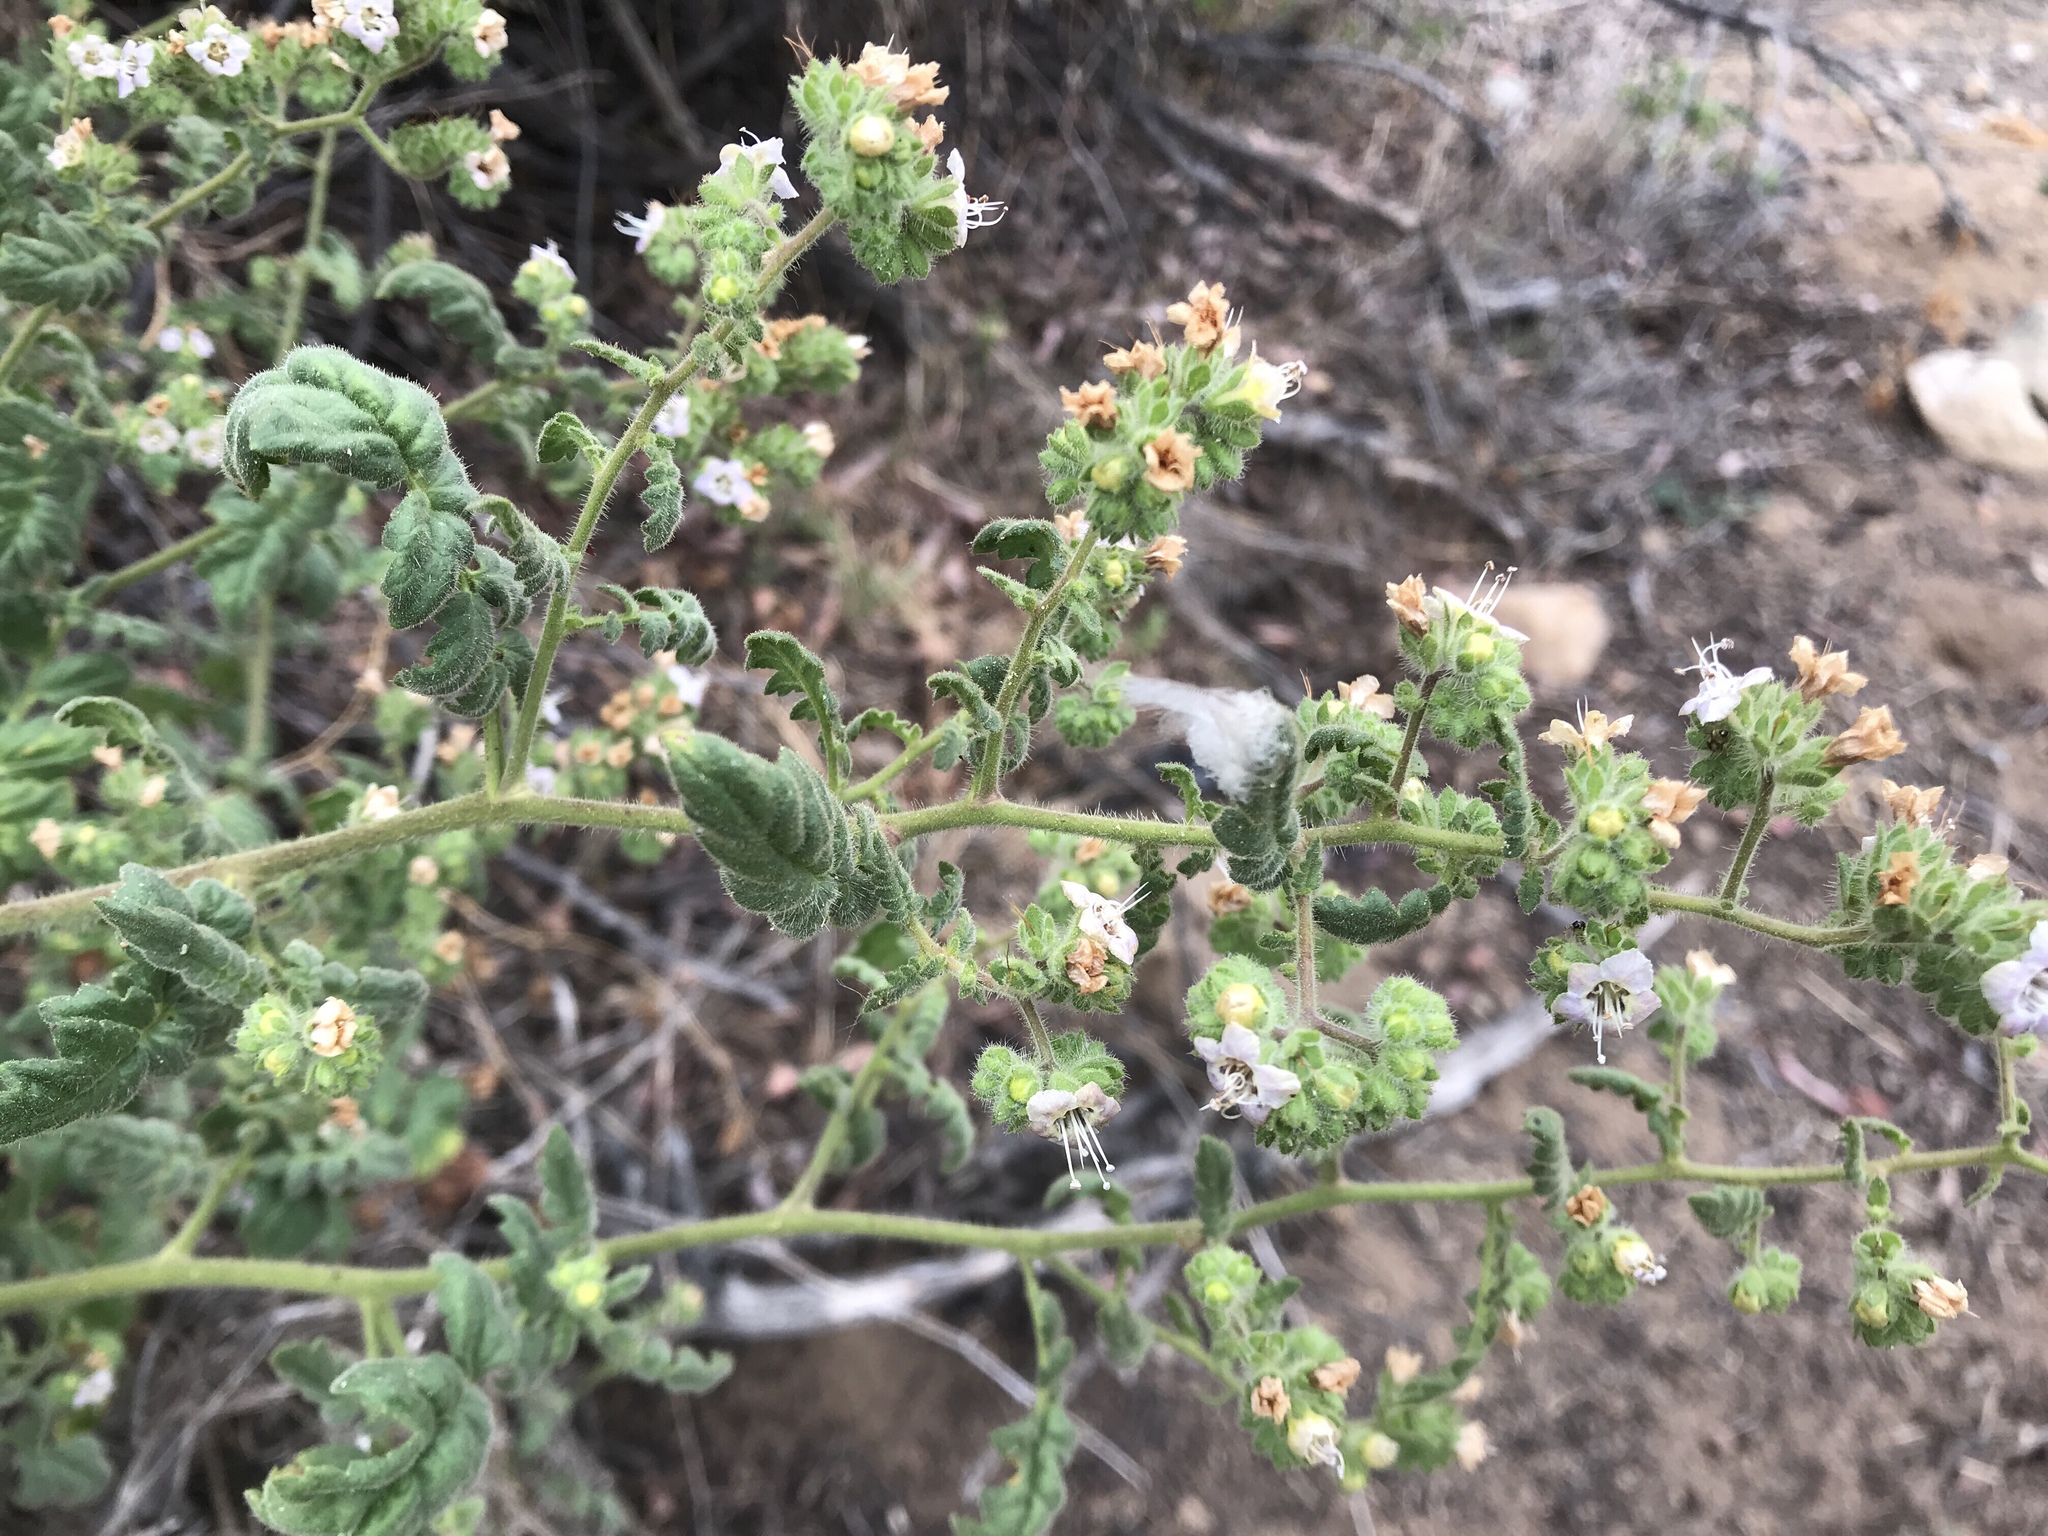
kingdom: Plantae
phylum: Tracheophyta
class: Magnoliopsida
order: Boraginales
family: Hydrophyllaceae
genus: Phacelia
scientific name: Phacelia ramosissima
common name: Branching phacelia
